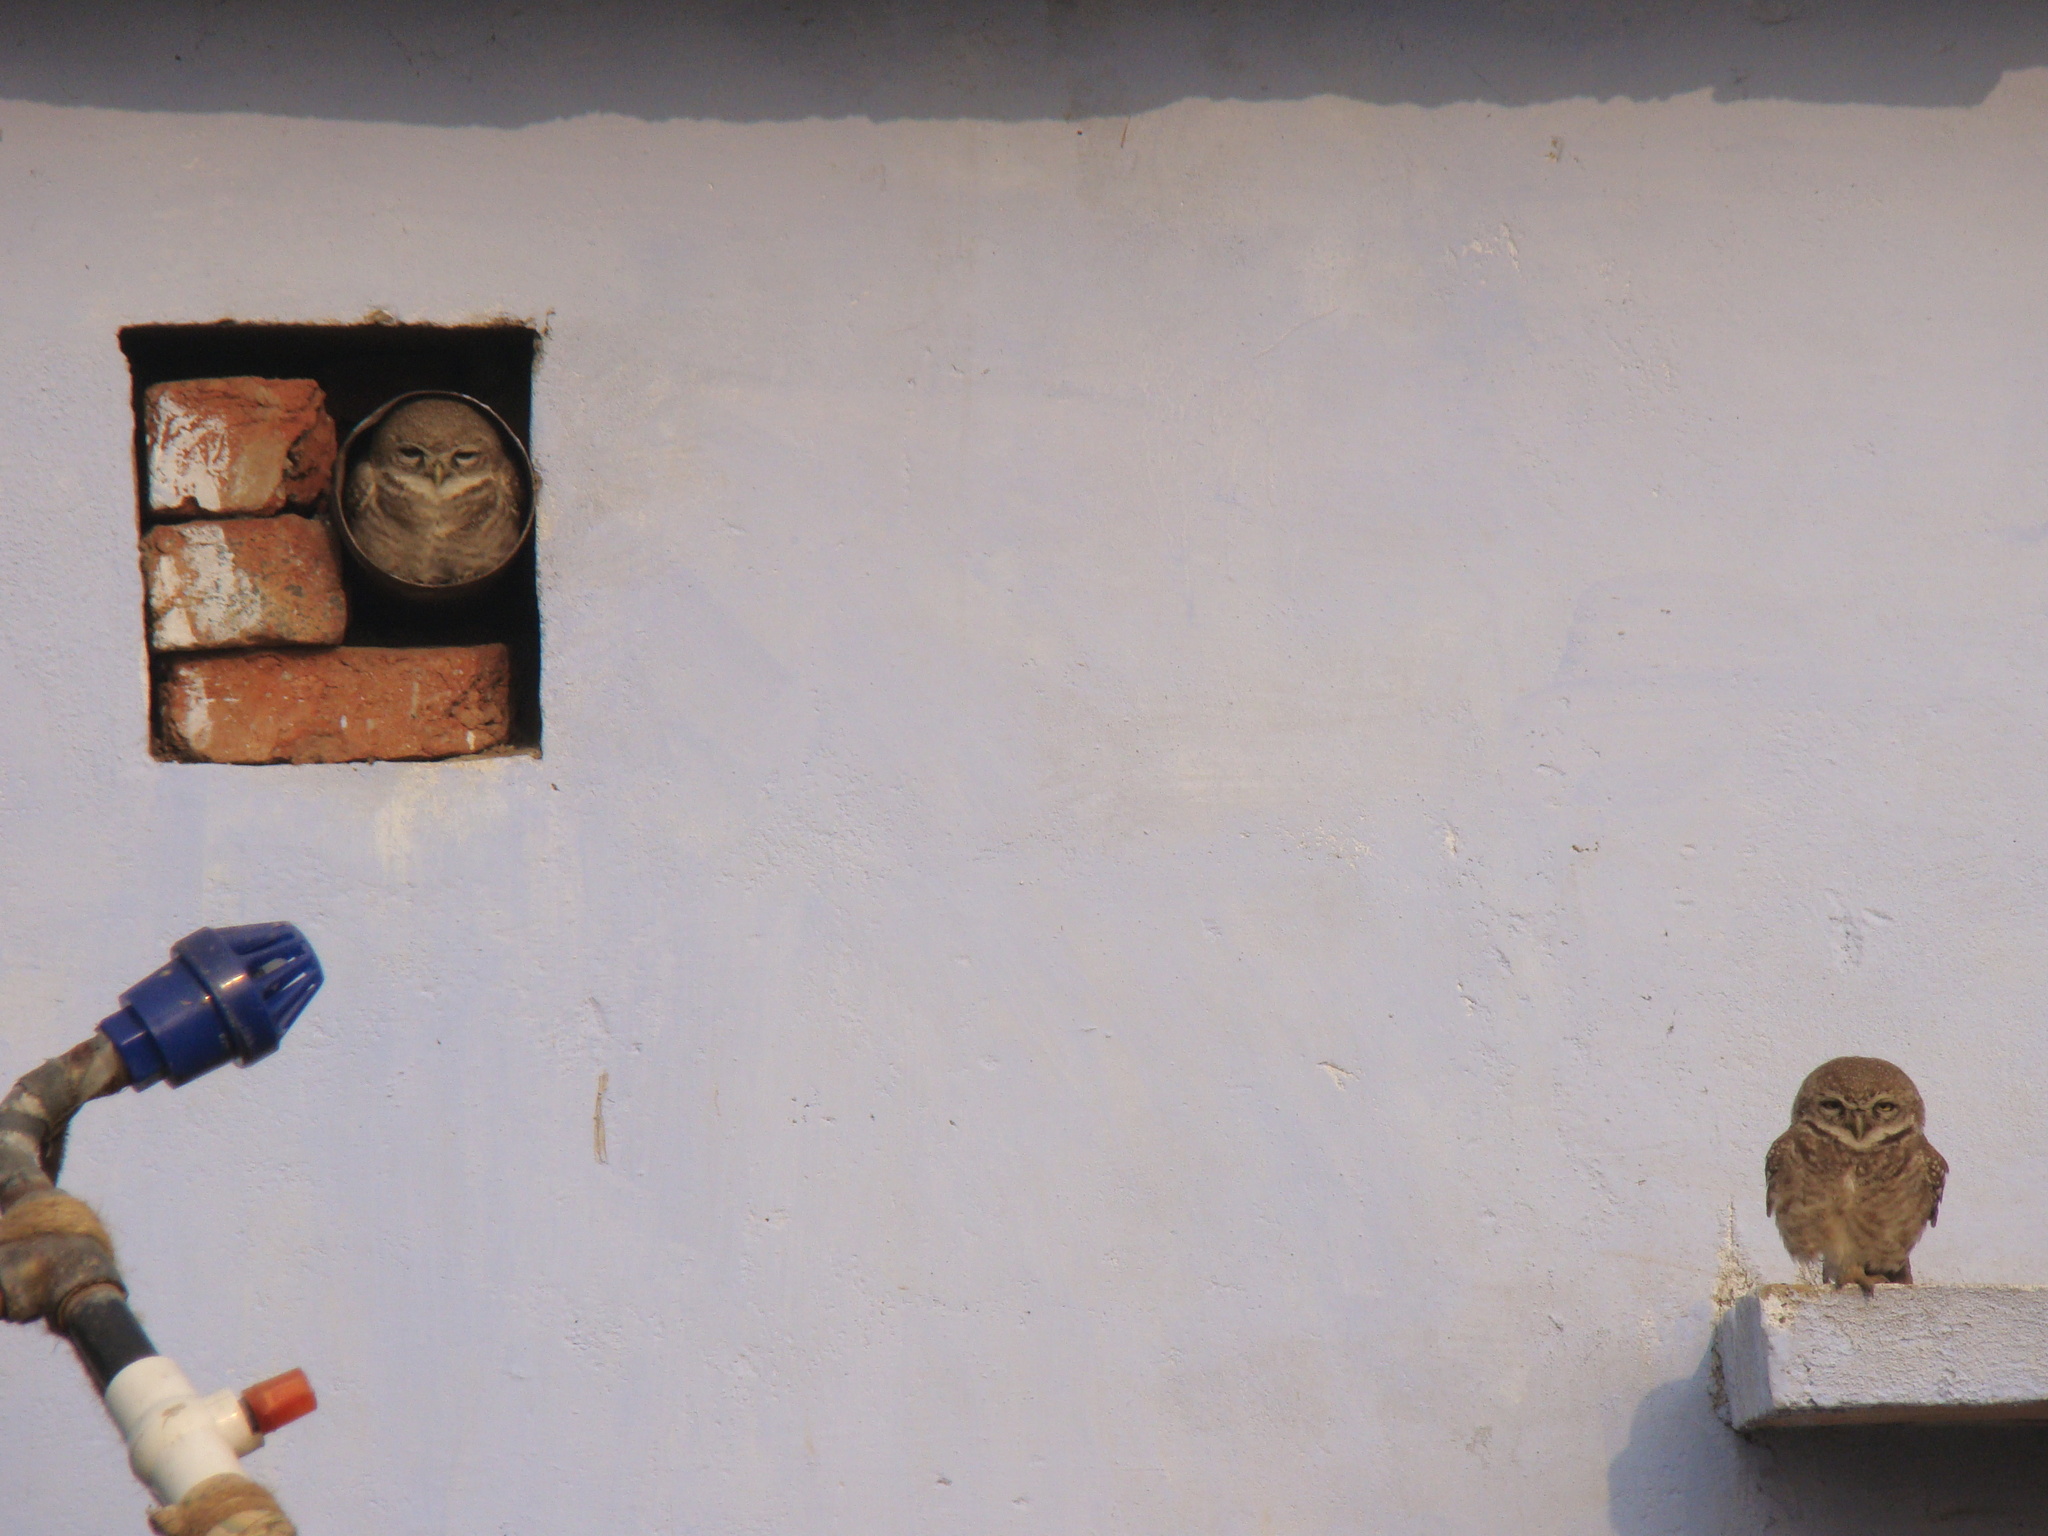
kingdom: Animalia
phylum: Chordata
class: Aves
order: Strigiformes
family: Strigidae
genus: Athene
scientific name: Athene brama
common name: Spotted owlet
